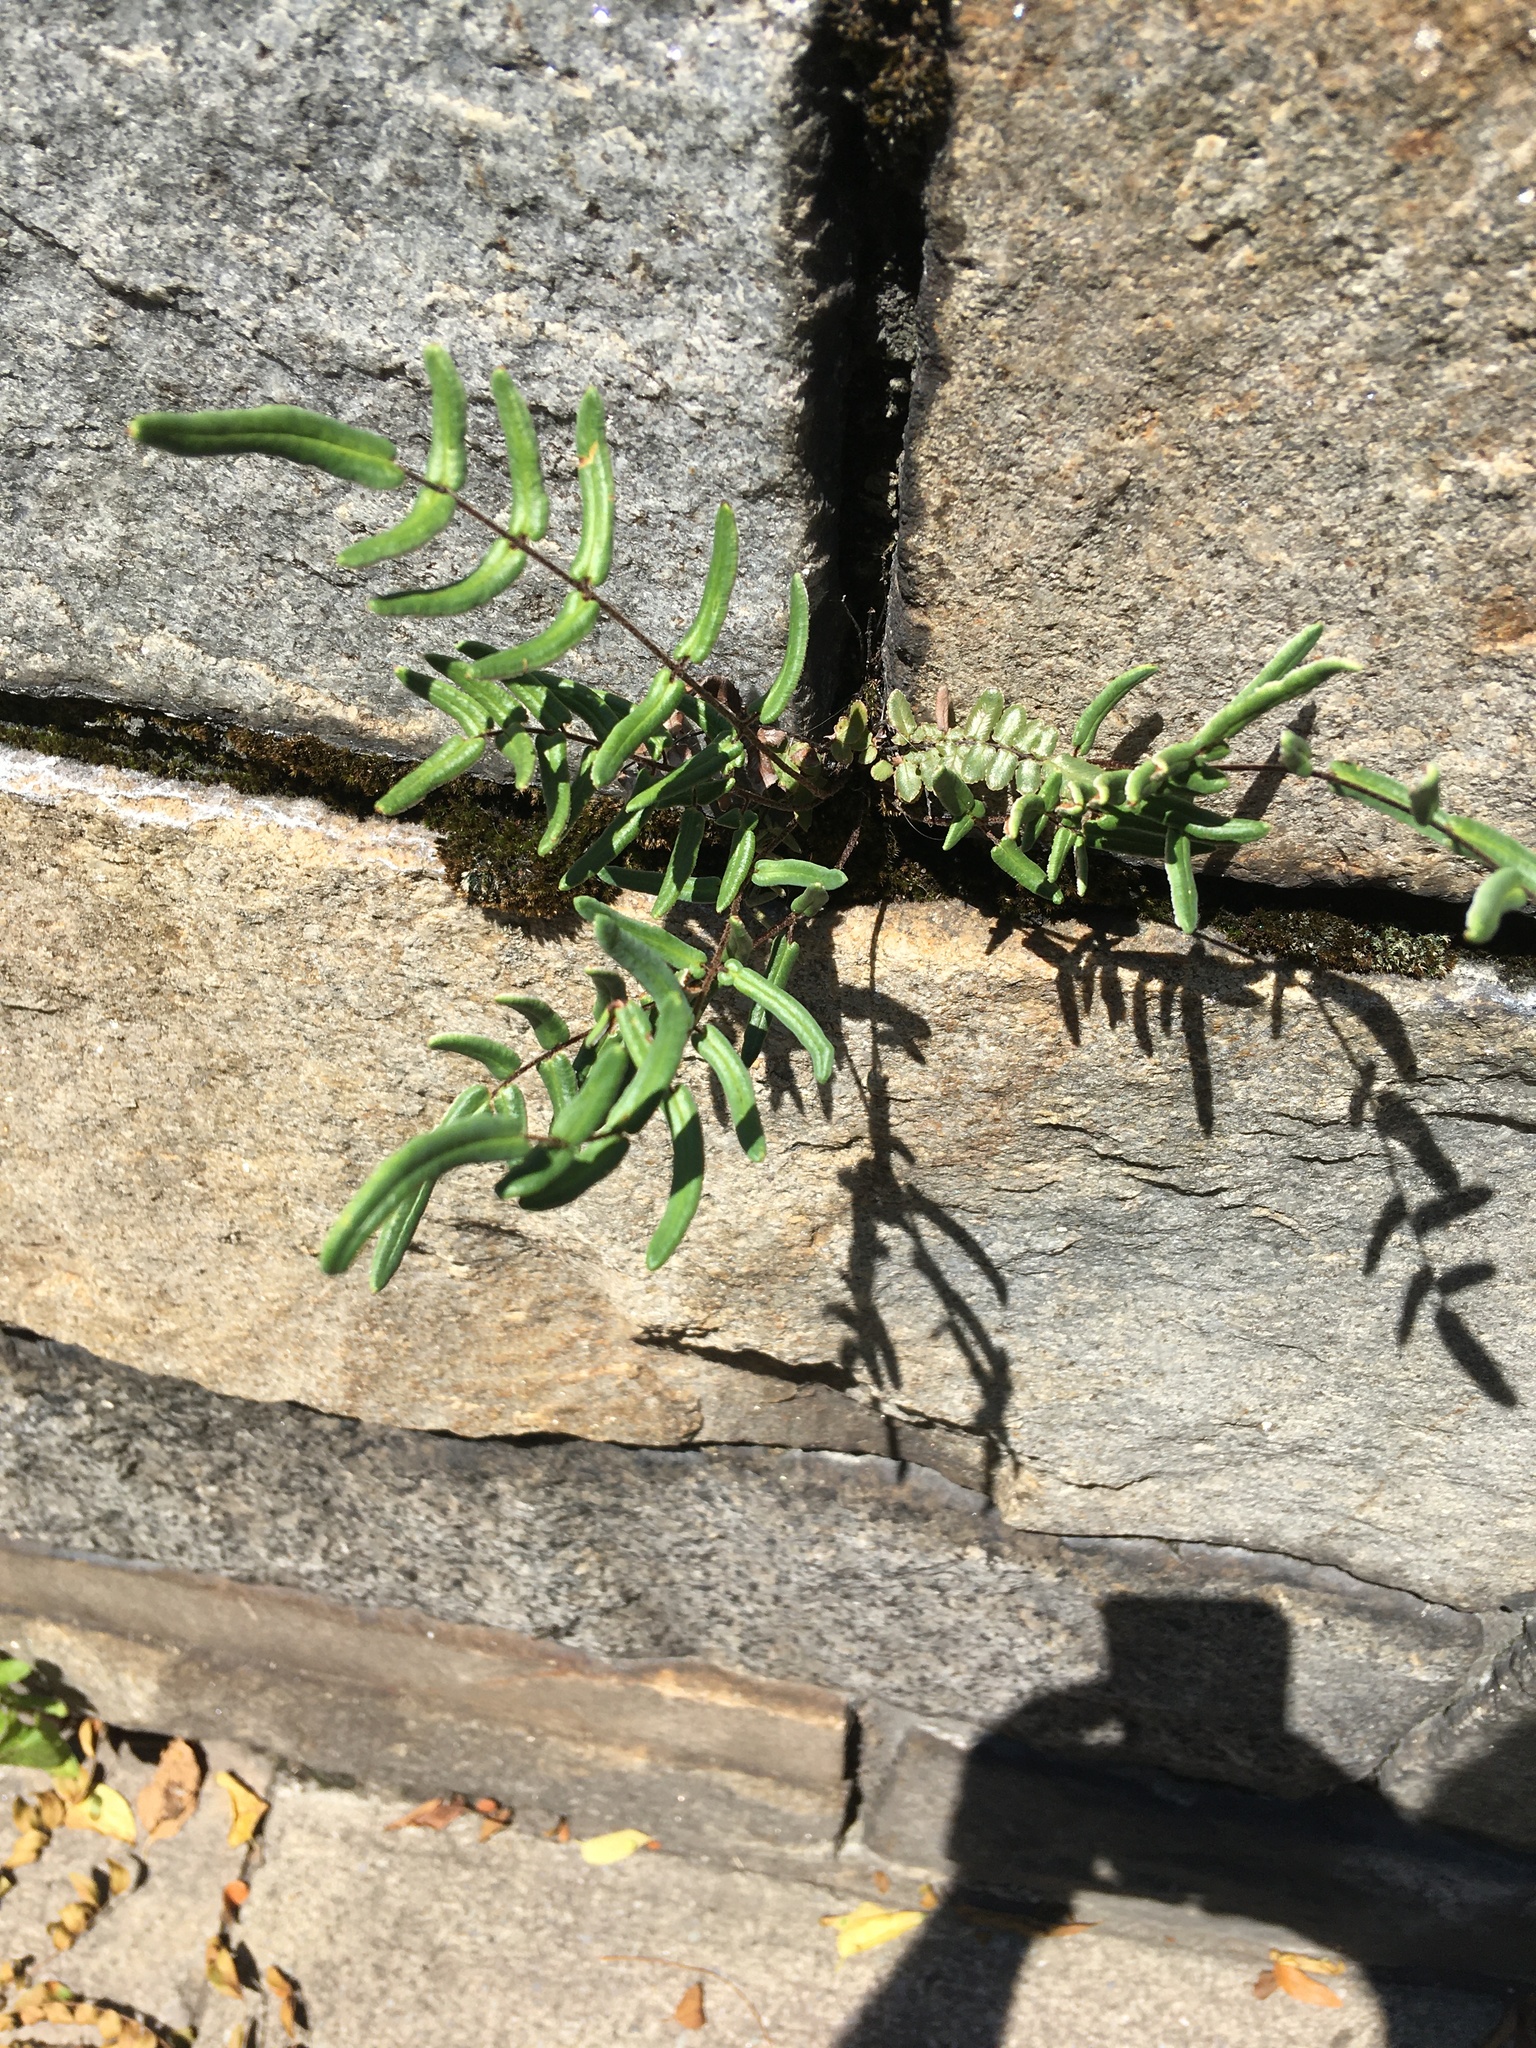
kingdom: Plantae
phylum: Tracheophyta
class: Polypodiopsida
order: Polypodiales
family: Pteridaceae
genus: Pellaea
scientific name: Pellaea atropurpurea
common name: Hairy cliffbrake
